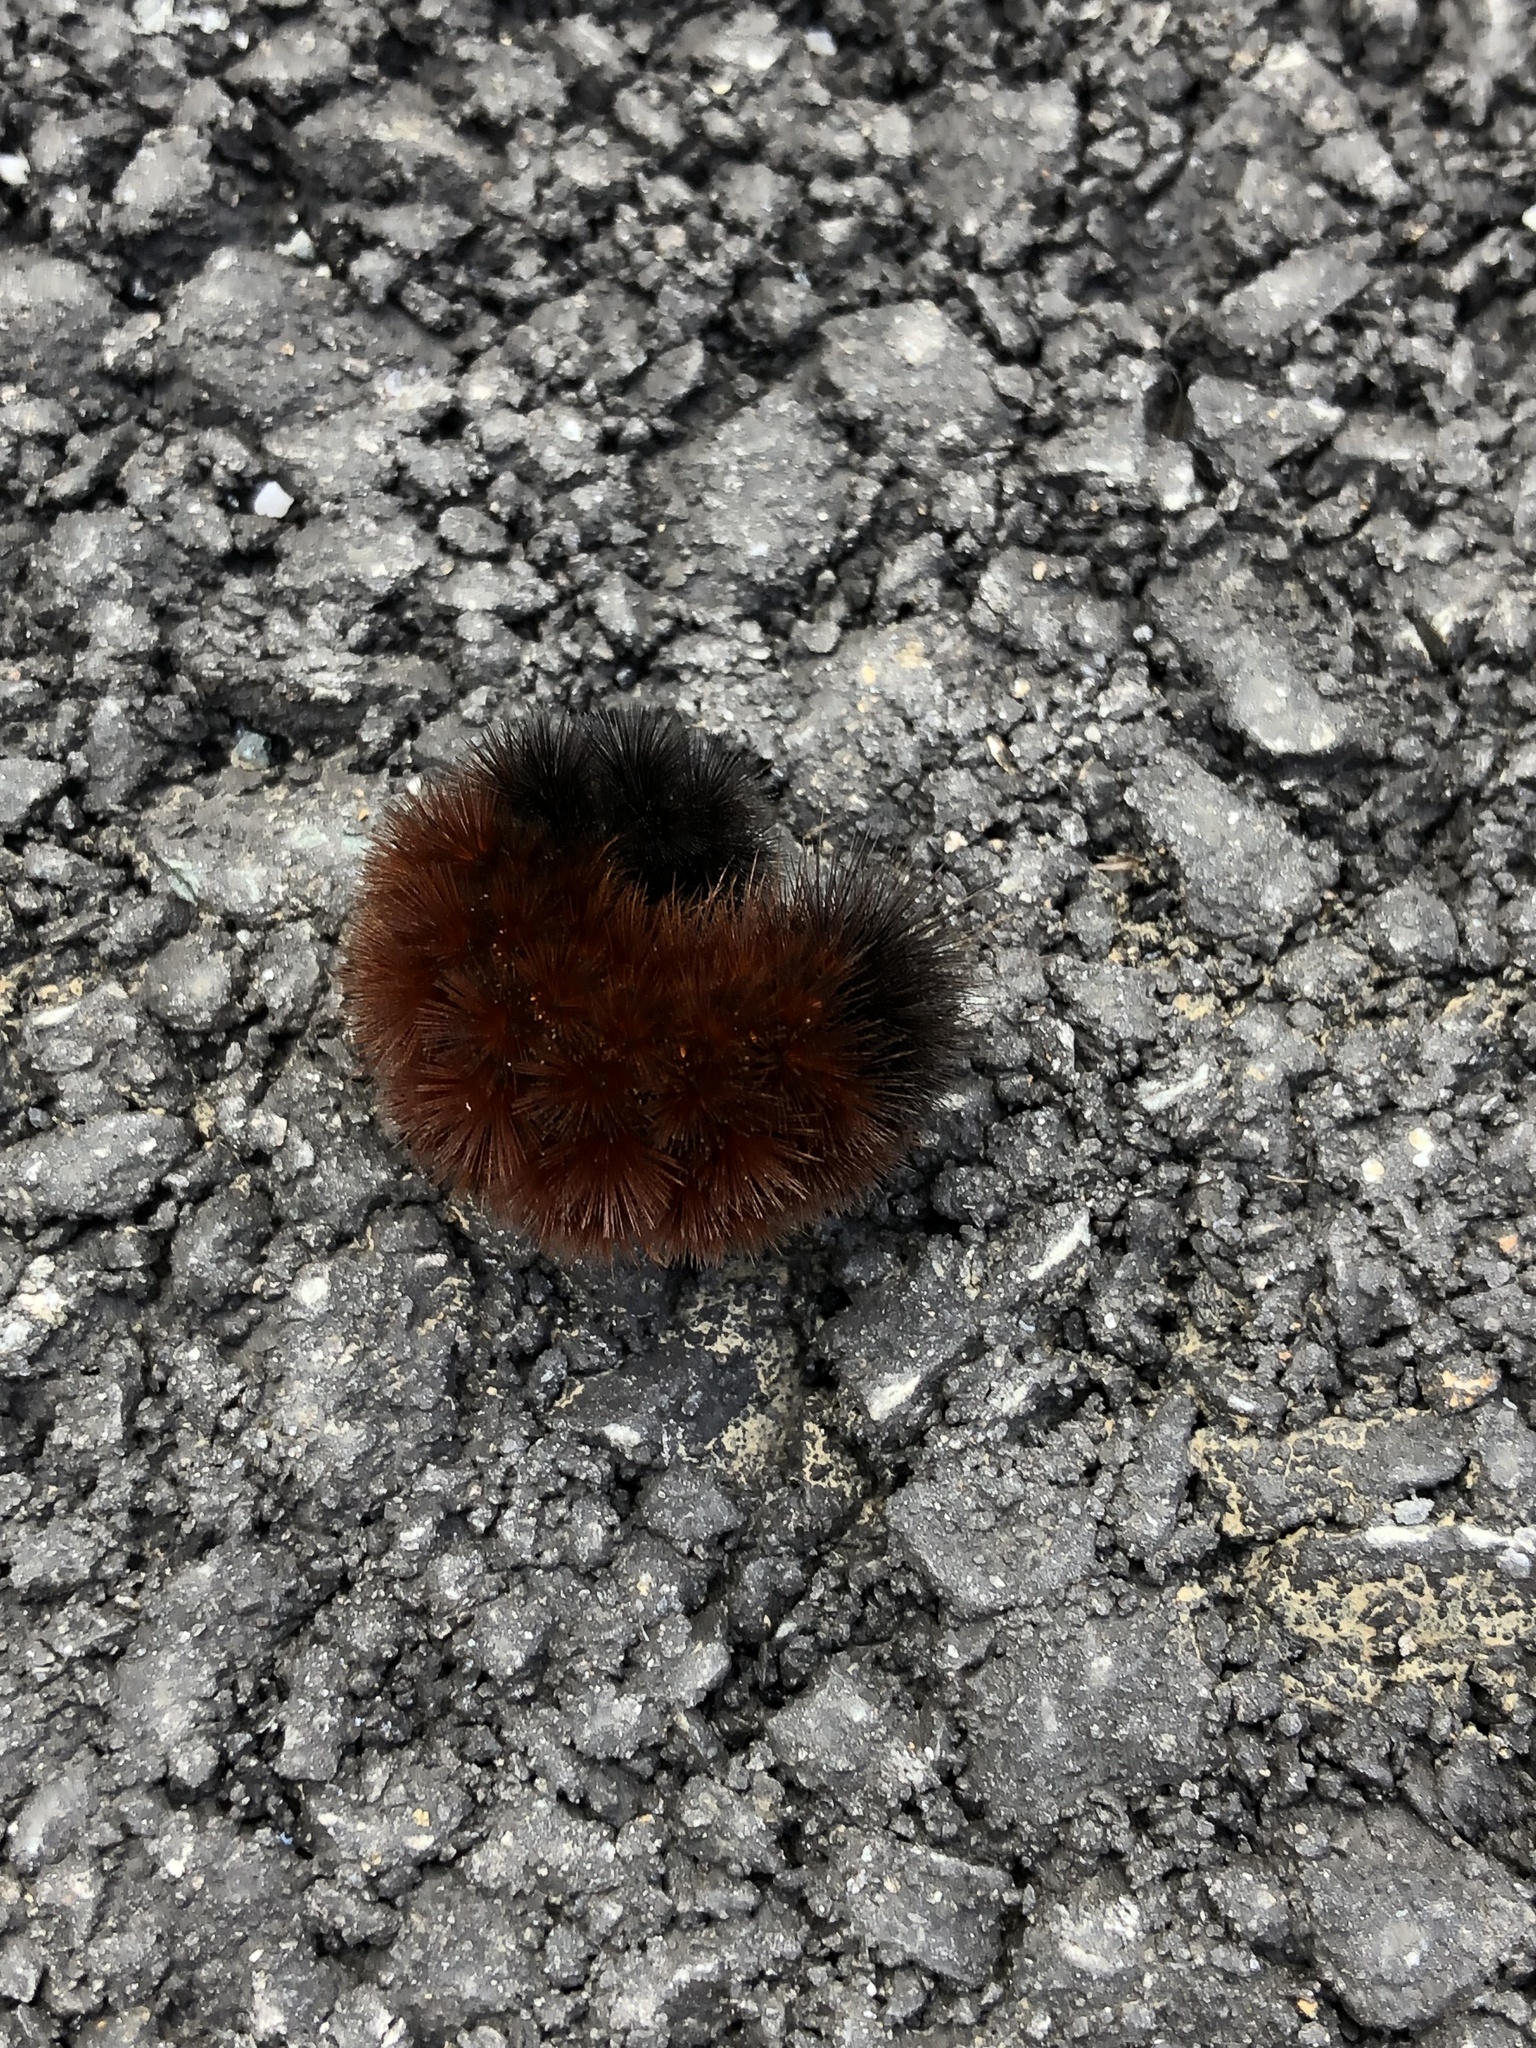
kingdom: Animalia
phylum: Arthropoda
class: Insecta
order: Lepidoptera
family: Erebidae
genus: Pyrrharctia
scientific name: Pyrrharctia isabella
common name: Isabella tiger moth
